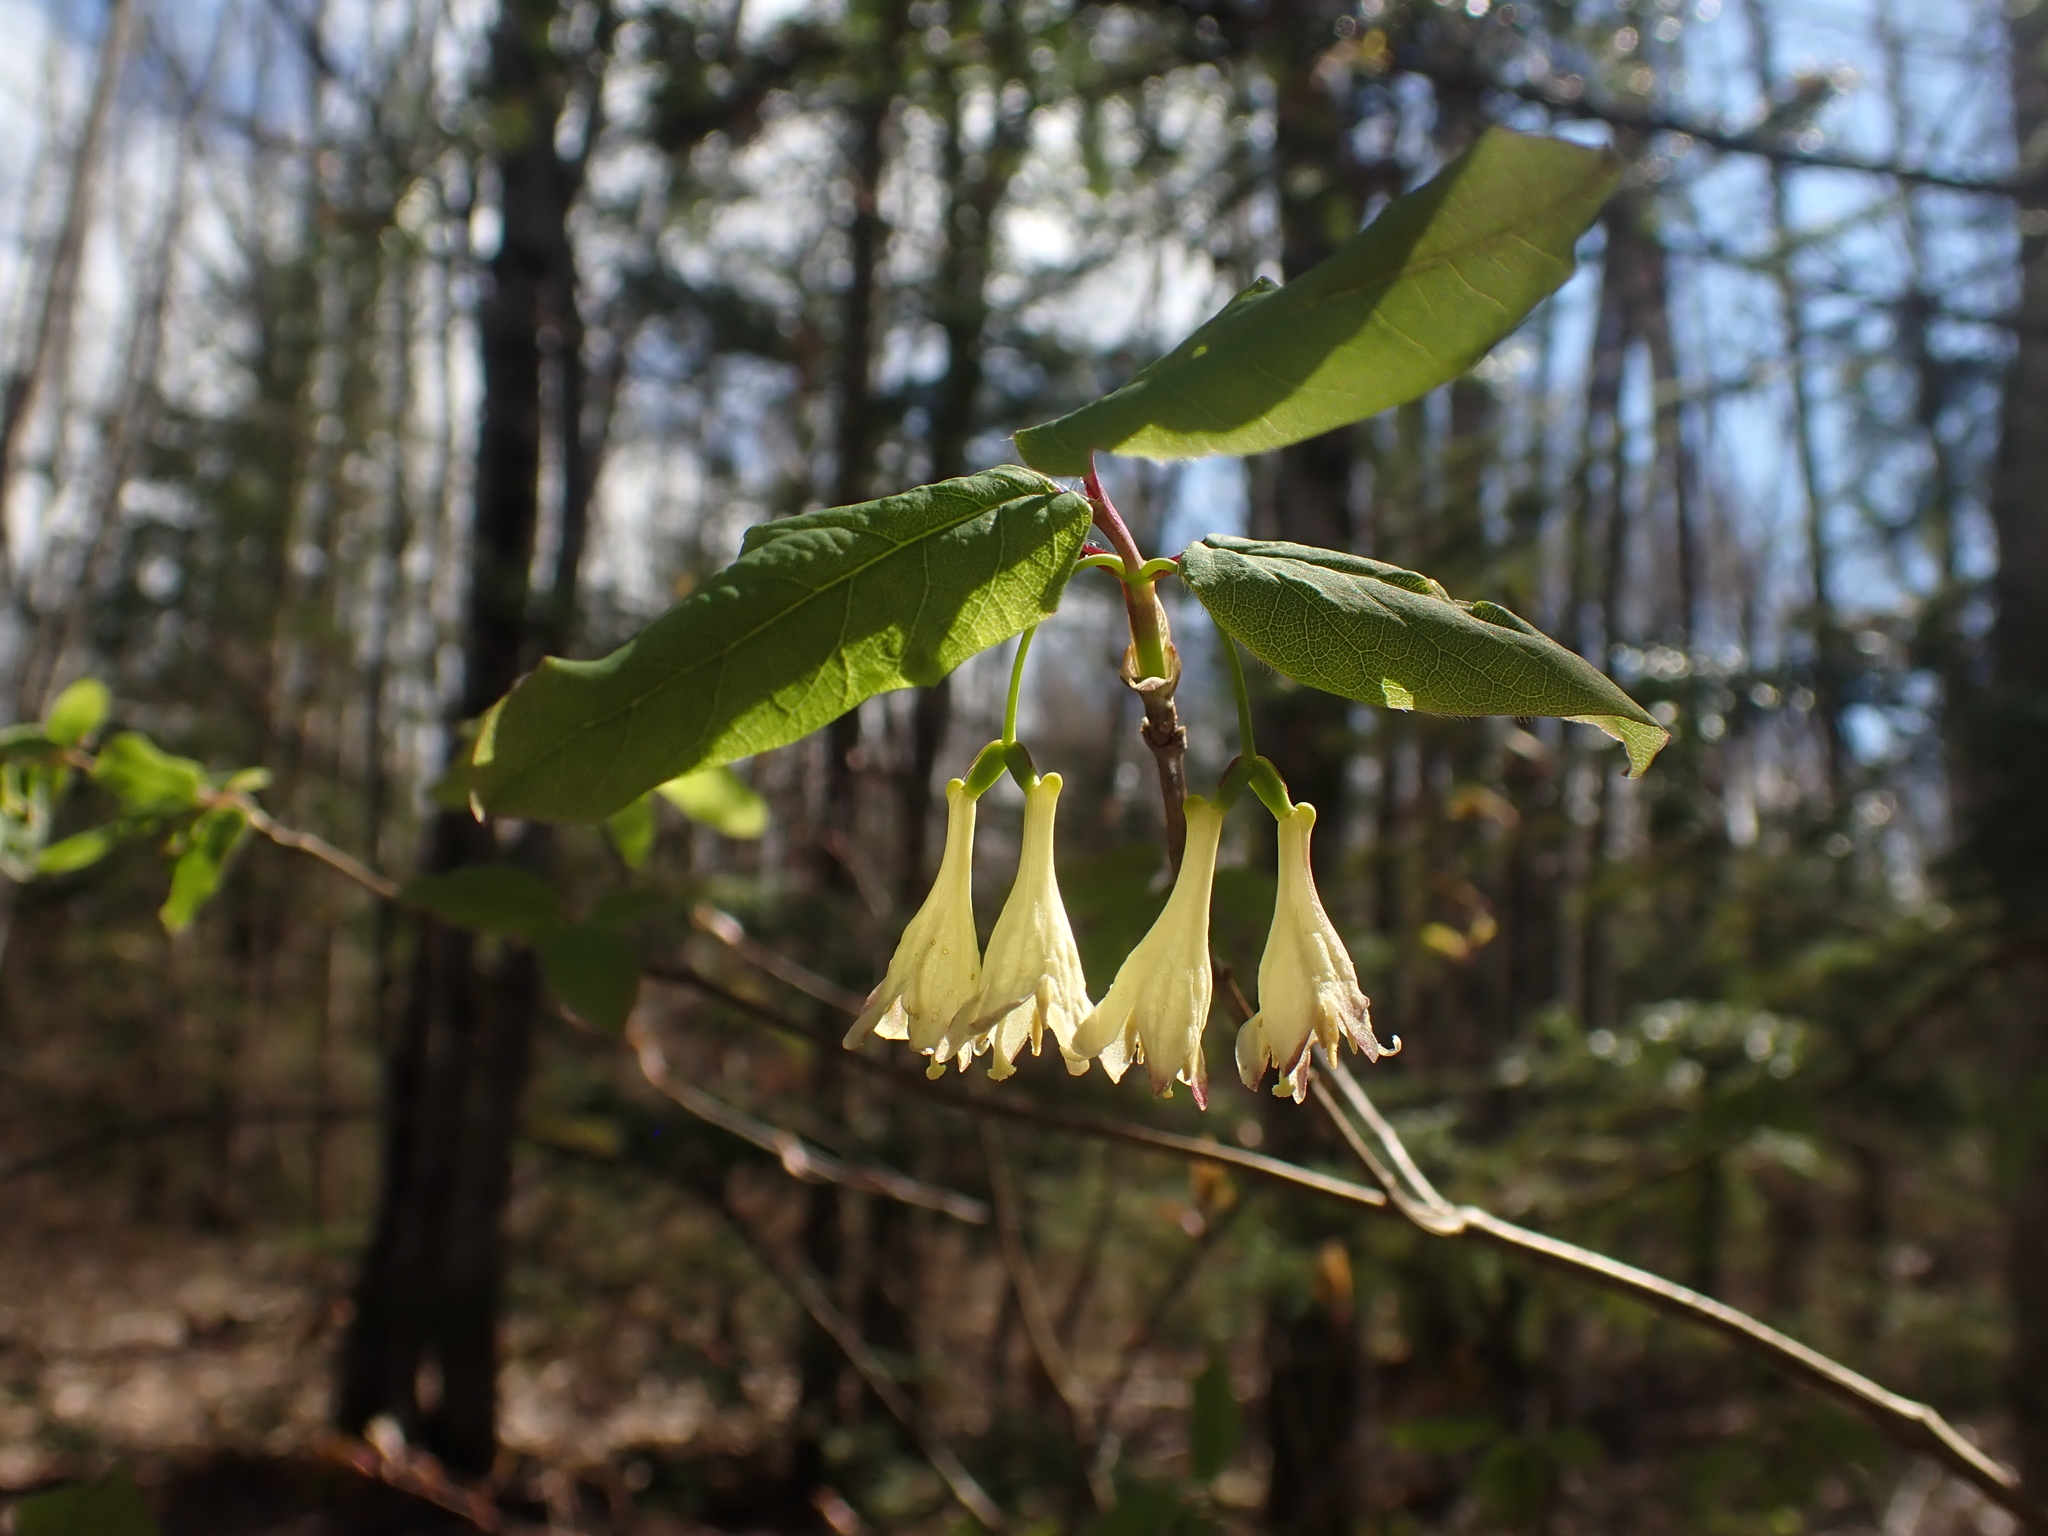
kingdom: Plantae
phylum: Tracheophyta
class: Magnoliopsida
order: Dipsacales
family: Caprifoliaceae
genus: Lonicera
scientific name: Lonicera canadensis
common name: American fly-honeysuckle
